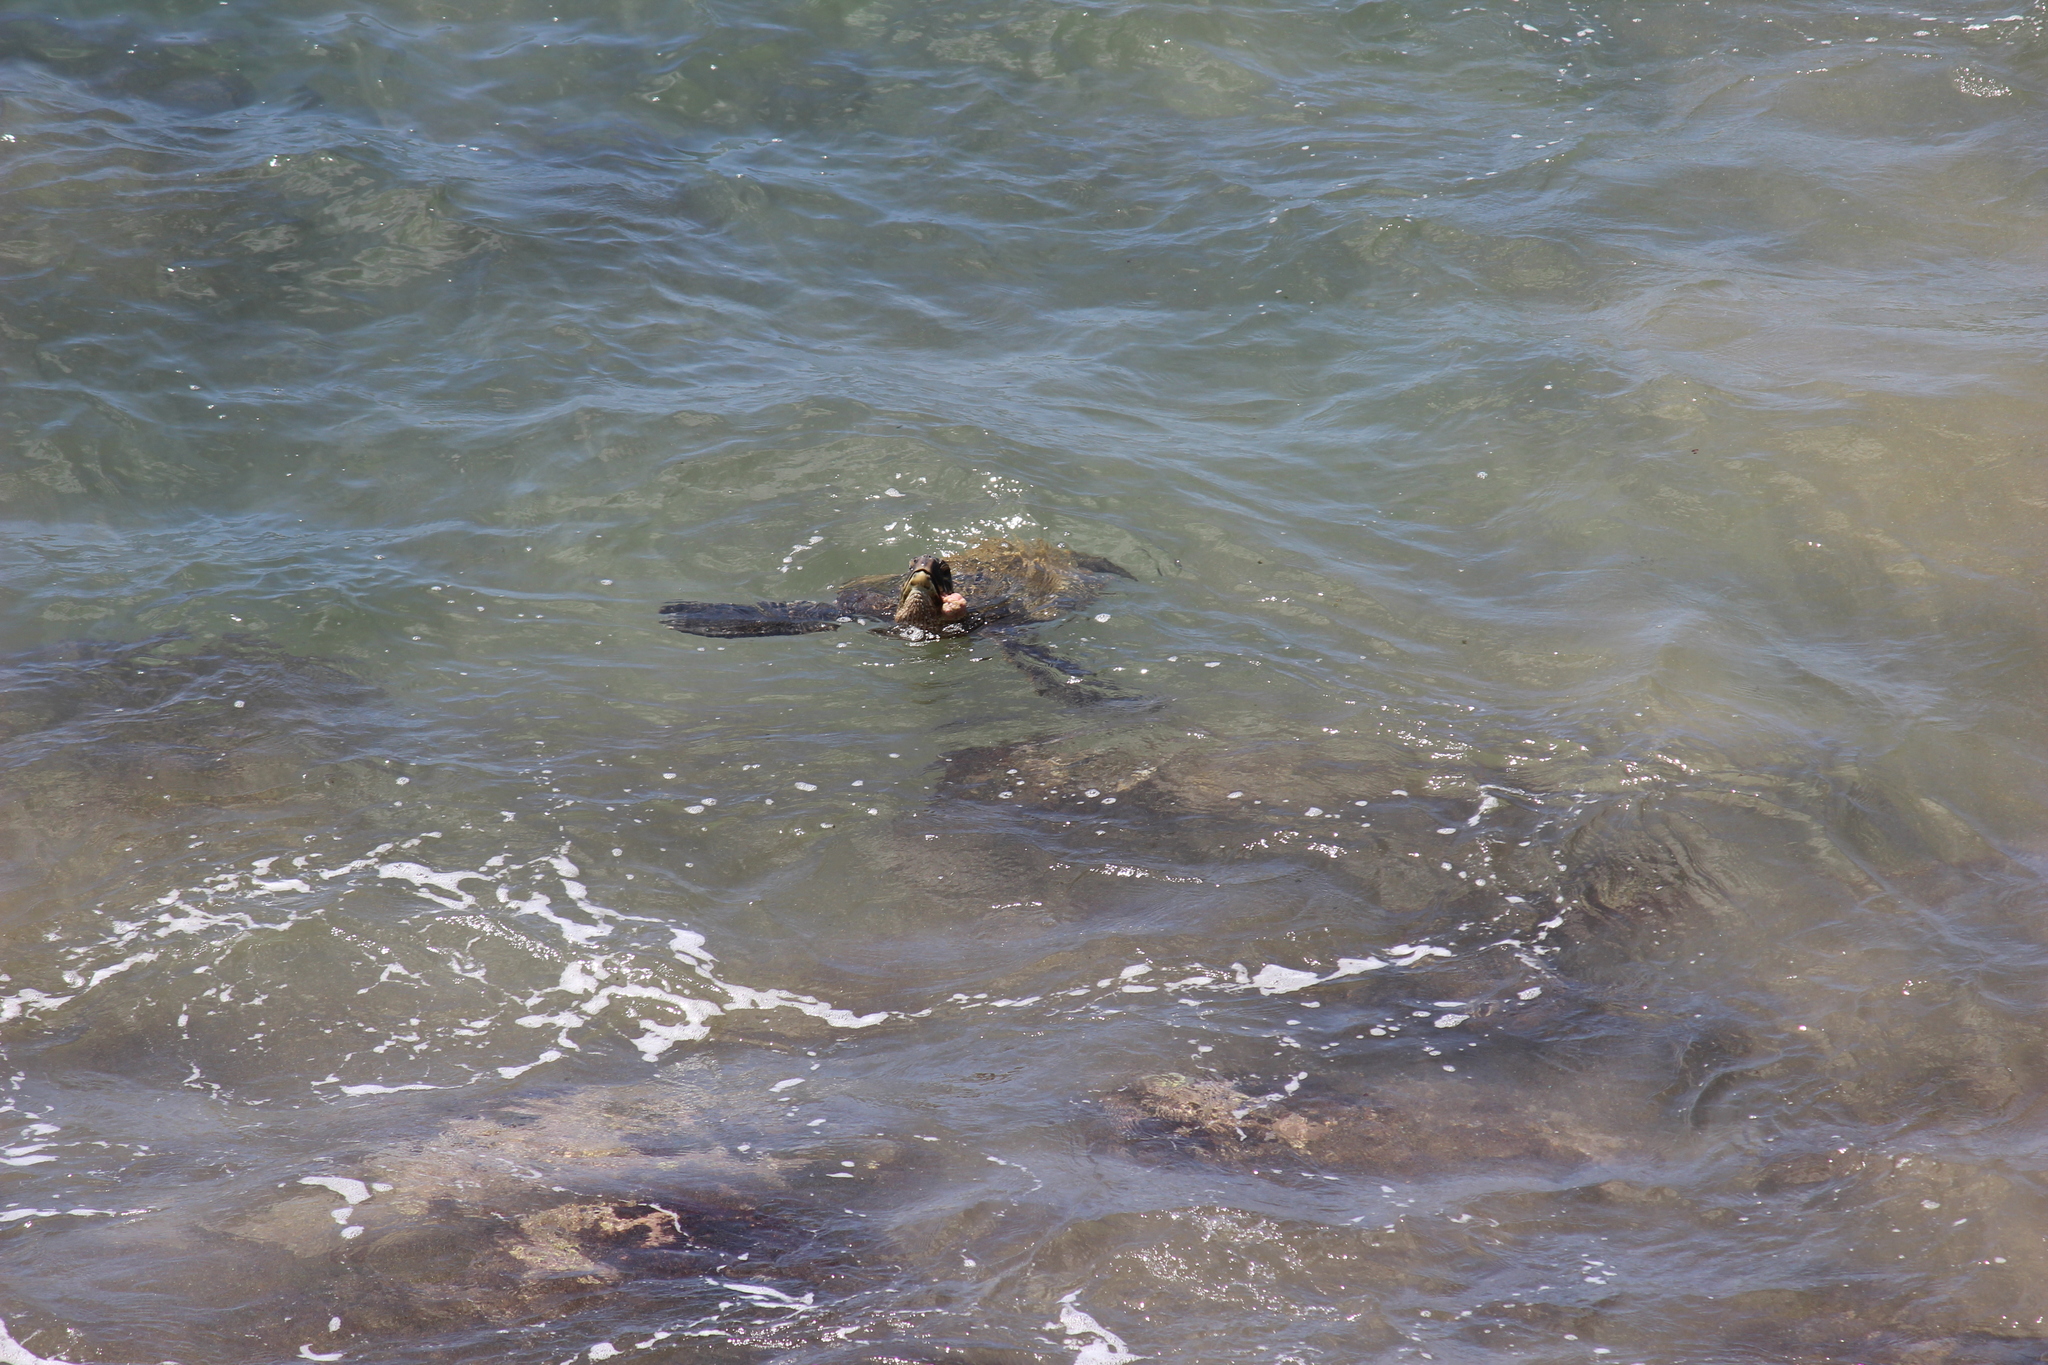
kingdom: Animalia
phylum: Chordata
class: Testudines
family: Cheloniidae
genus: Chelonia
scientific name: Chelonia mydas
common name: Green turtle
